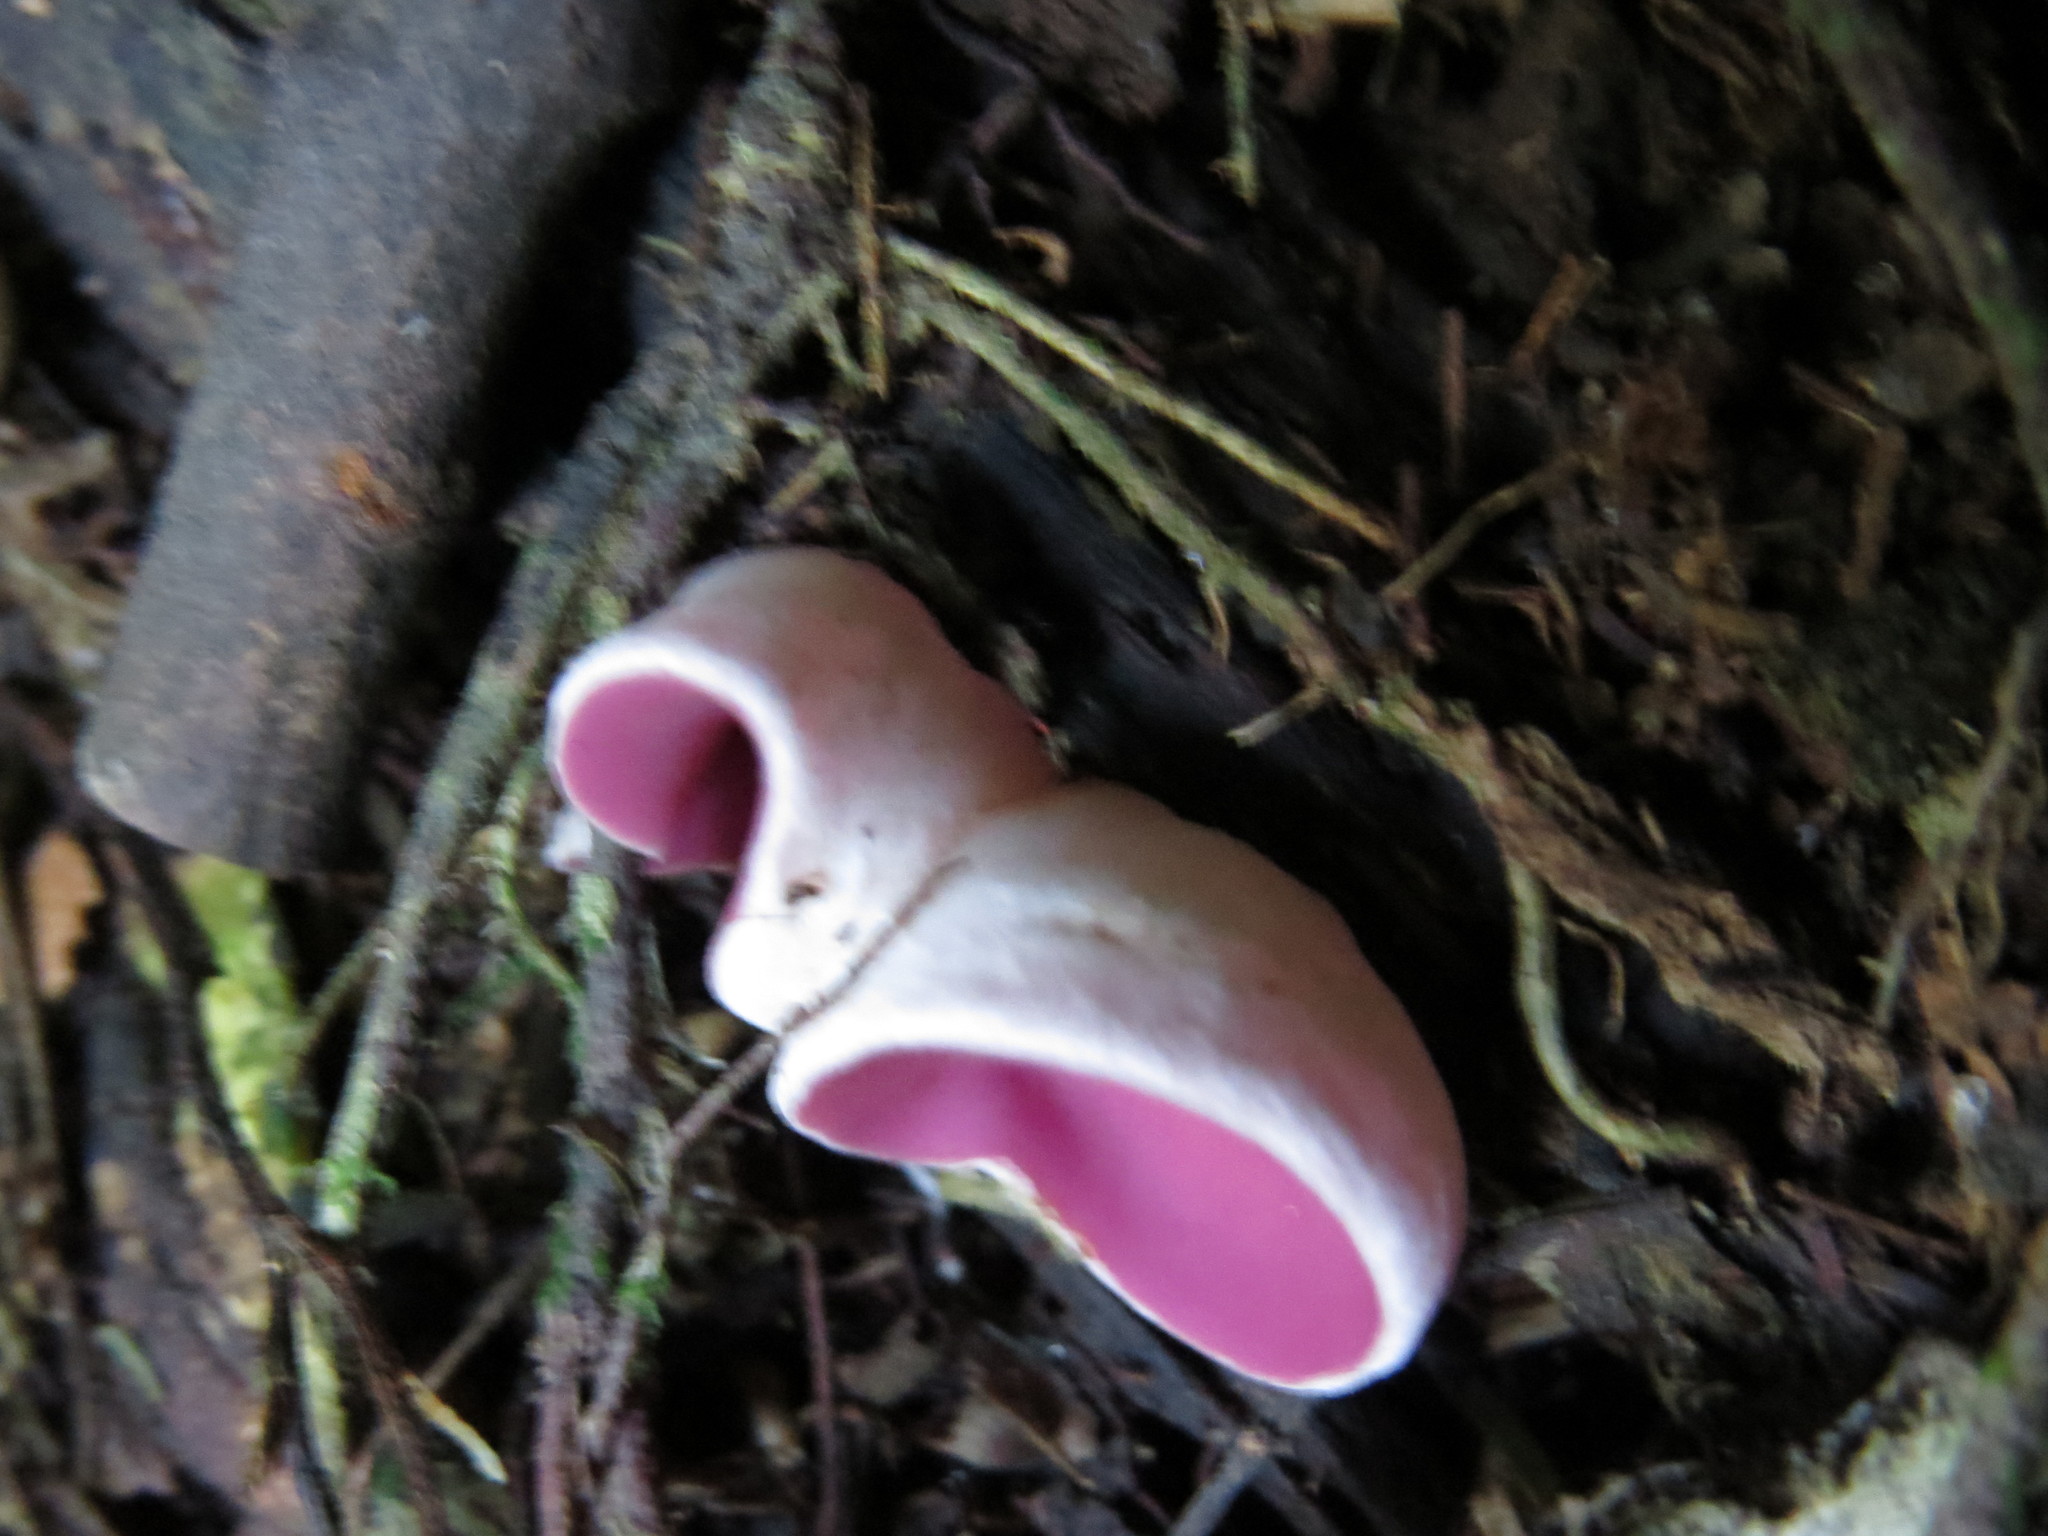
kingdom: Fungi
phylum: Ascomycota
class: Pezizomycetes
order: Pezizales
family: Sarcoscyphaceae
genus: Phillipsia
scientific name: Phillipsia domingensis
